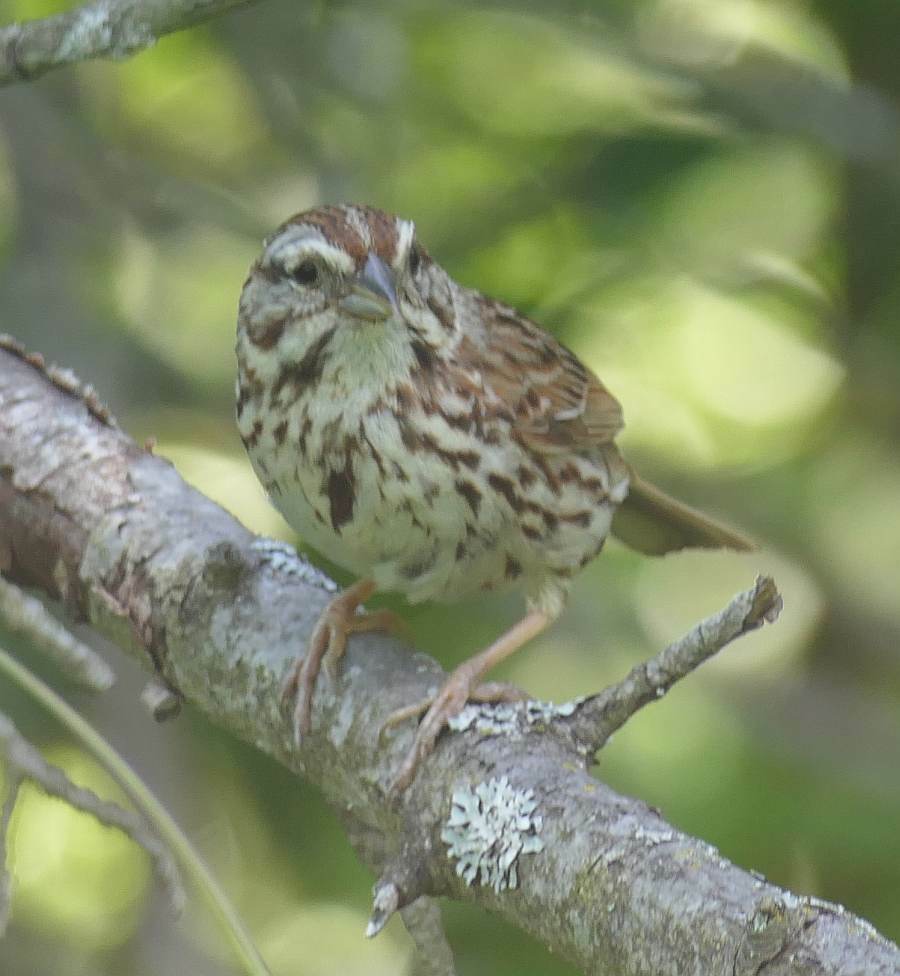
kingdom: Animalia
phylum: Chordata
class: Aves
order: Passeriformes
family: Passerellidae
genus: Melospiza
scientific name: Melospiza melodia
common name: Song sparrow
